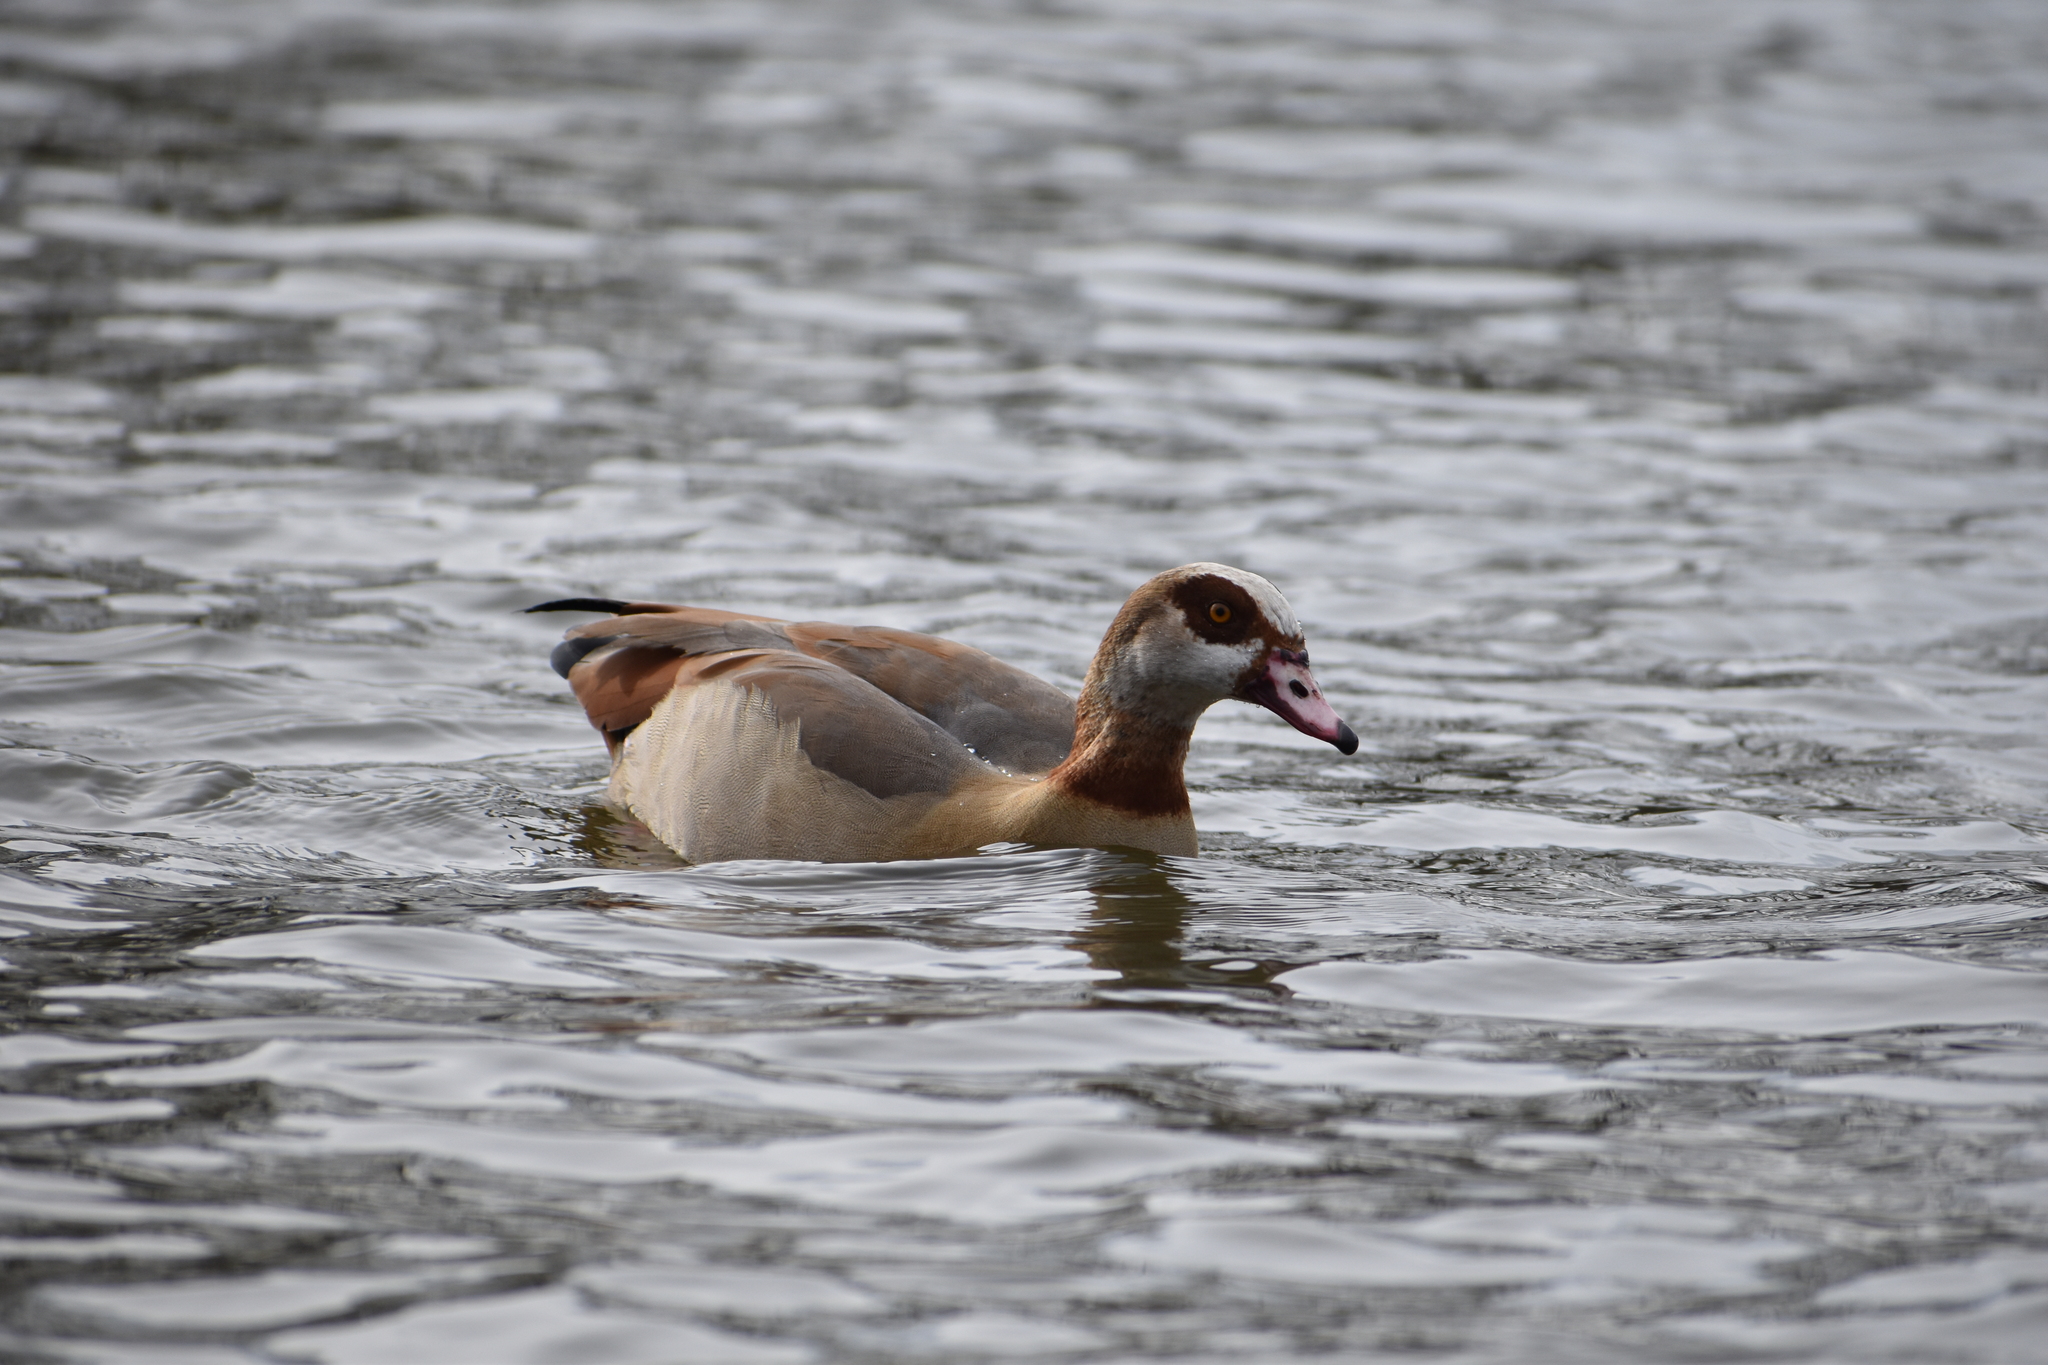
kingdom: Animalia
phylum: Chordata
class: Aves
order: Anseriformes
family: Anatidae
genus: Alopochen
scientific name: Alopochen aegyptiaca
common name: Egyptian goose
